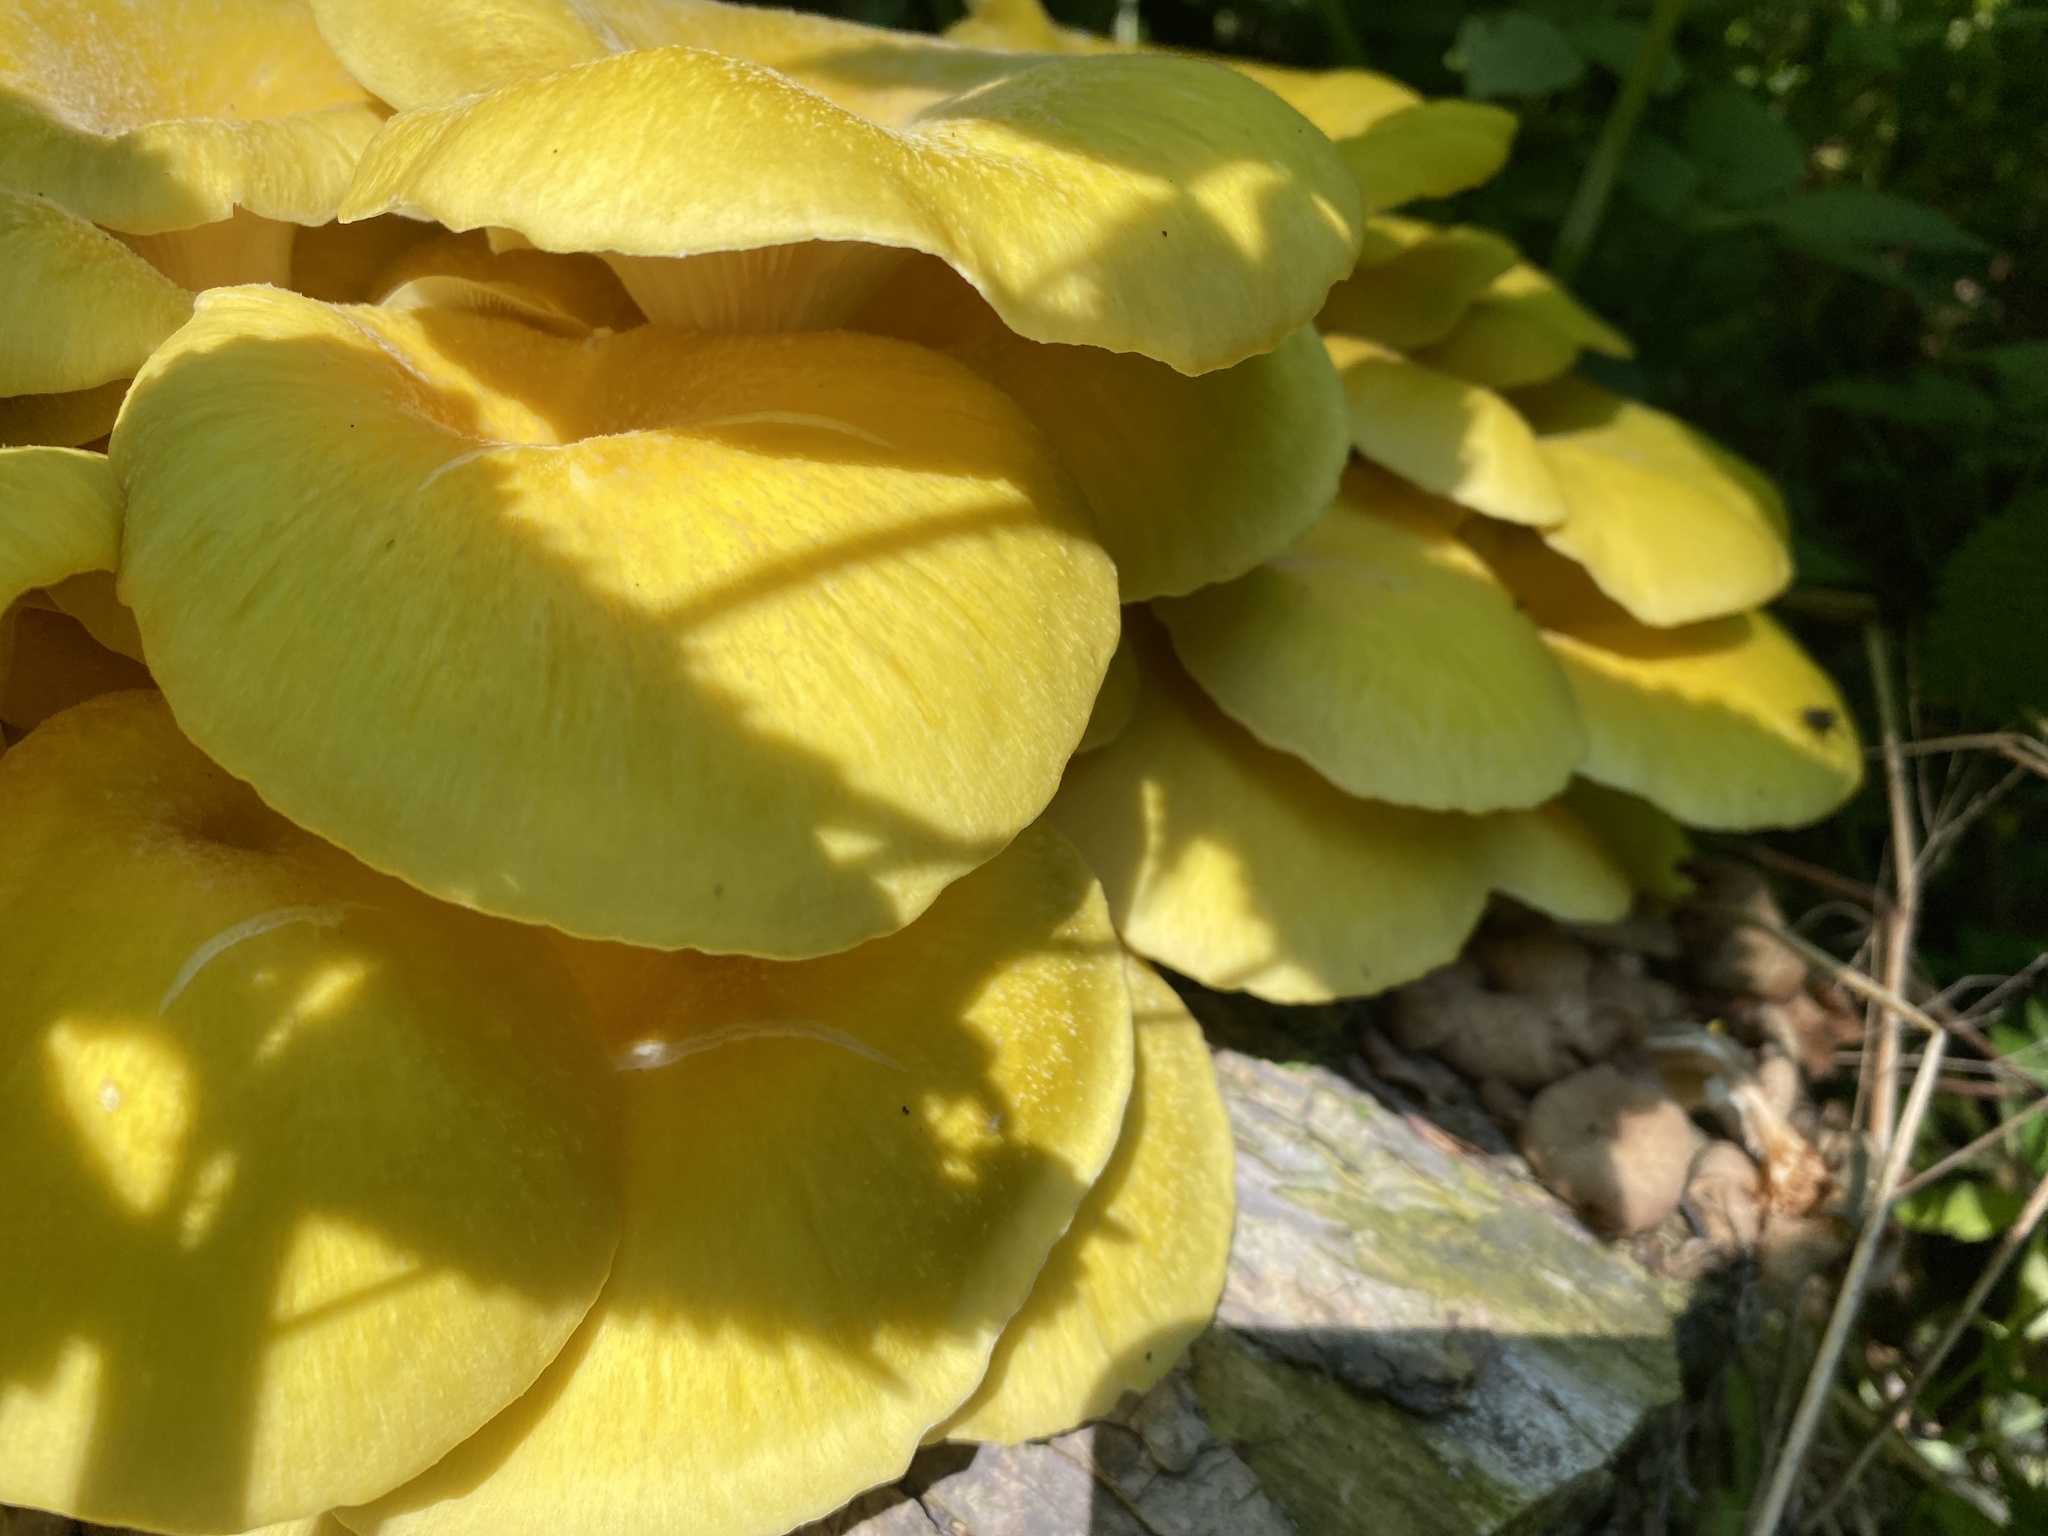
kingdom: Fungi
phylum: Basidiomycota
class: Agaricomycetes
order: Agaricales
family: Pleurotaceae
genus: Pleurotus
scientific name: Pleurotus citrinopileatus
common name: Golden oyster mushroom
